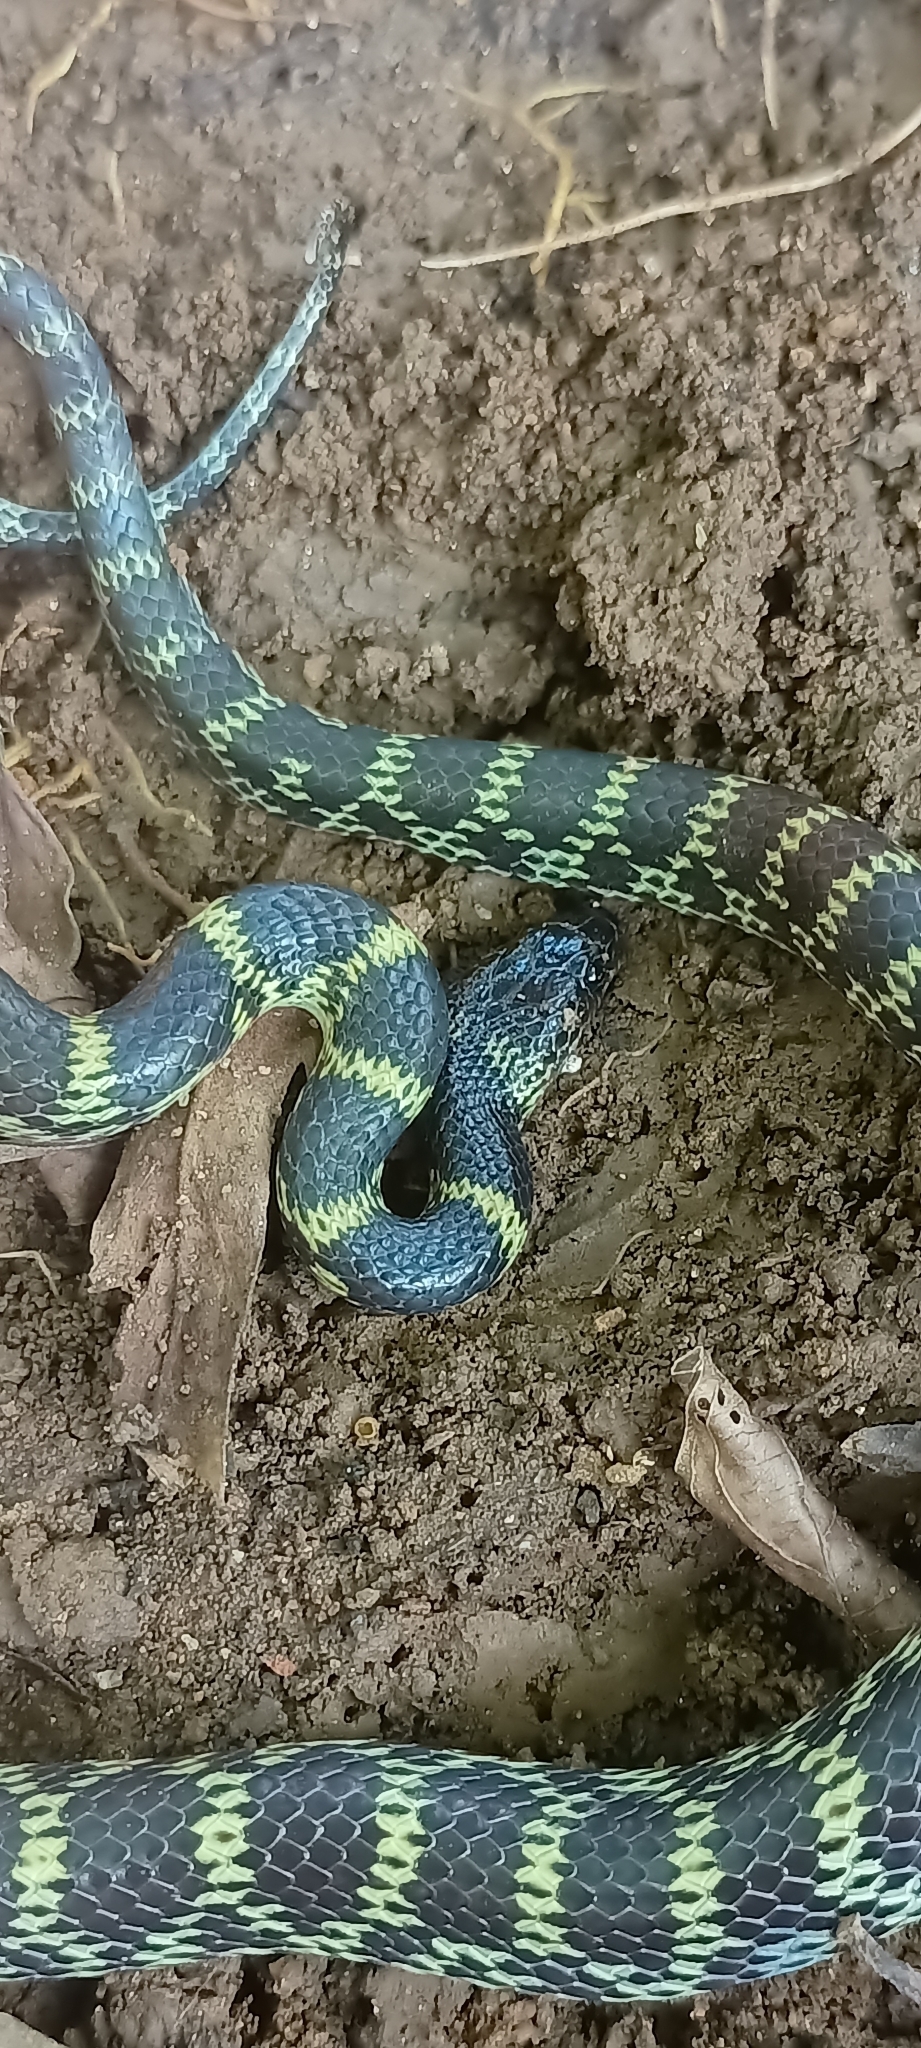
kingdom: Animalia
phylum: Chordata
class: Squamata
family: Colubridae
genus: Lycodon
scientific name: Lycodon travancoricus
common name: Travancore wolf snake
